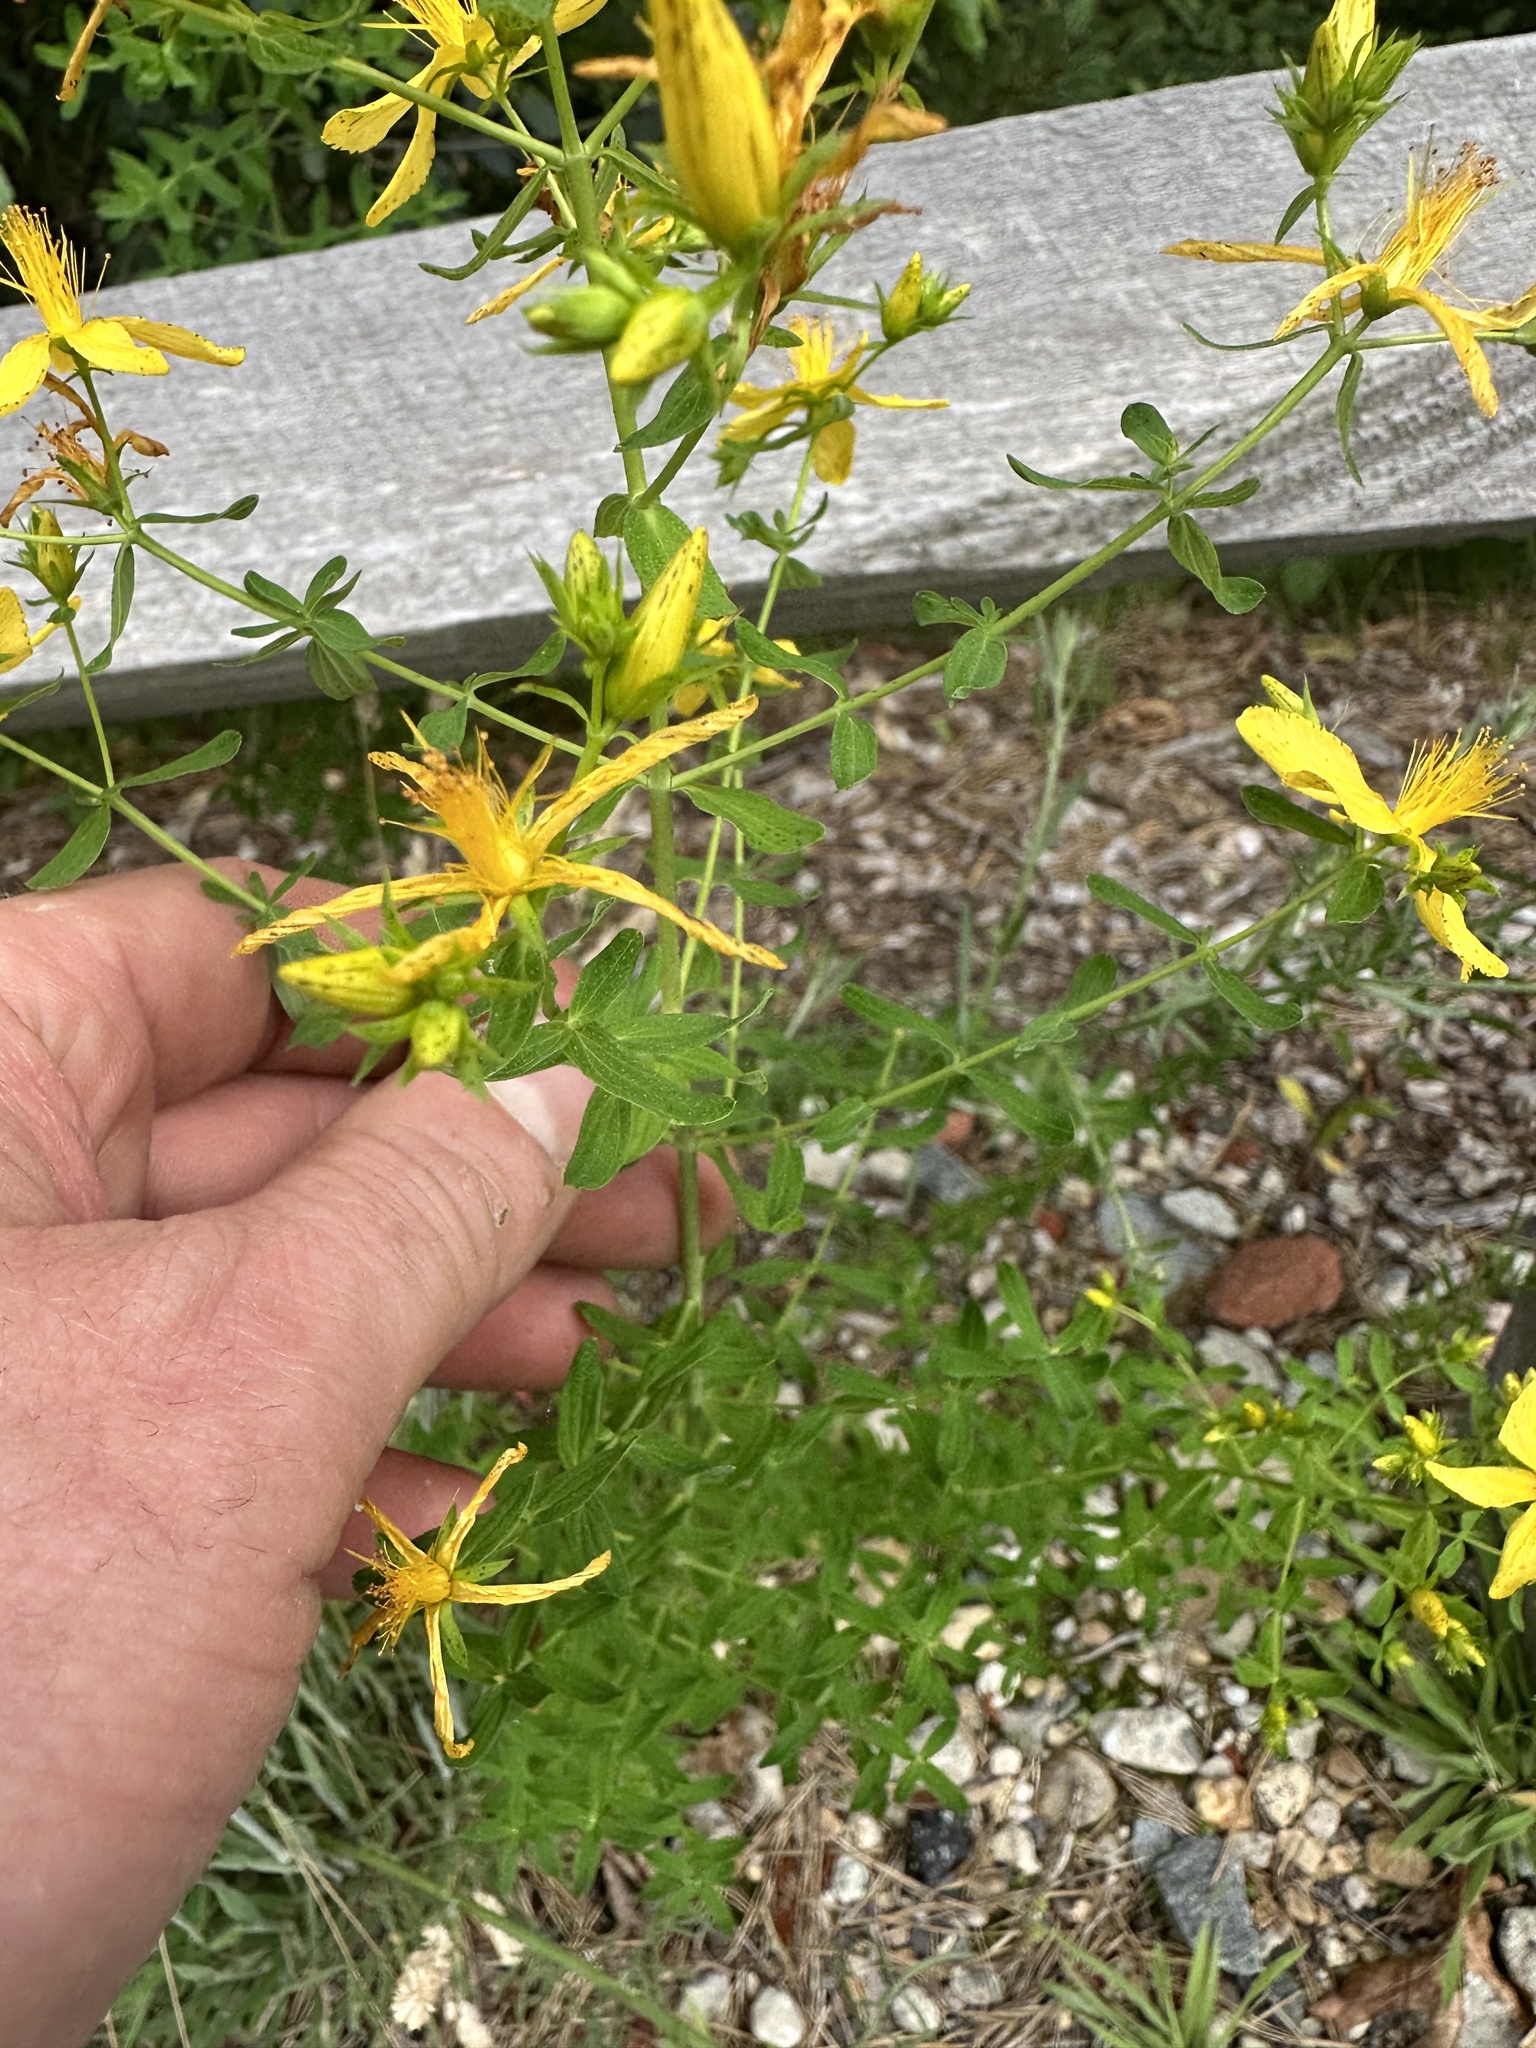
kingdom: Plantae
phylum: Tracheophyta
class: Magnoliopsida
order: Malpighiales
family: Hypericaceae
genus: Hypericum
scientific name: Hypericum perforatum
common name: Common st. johnswort
